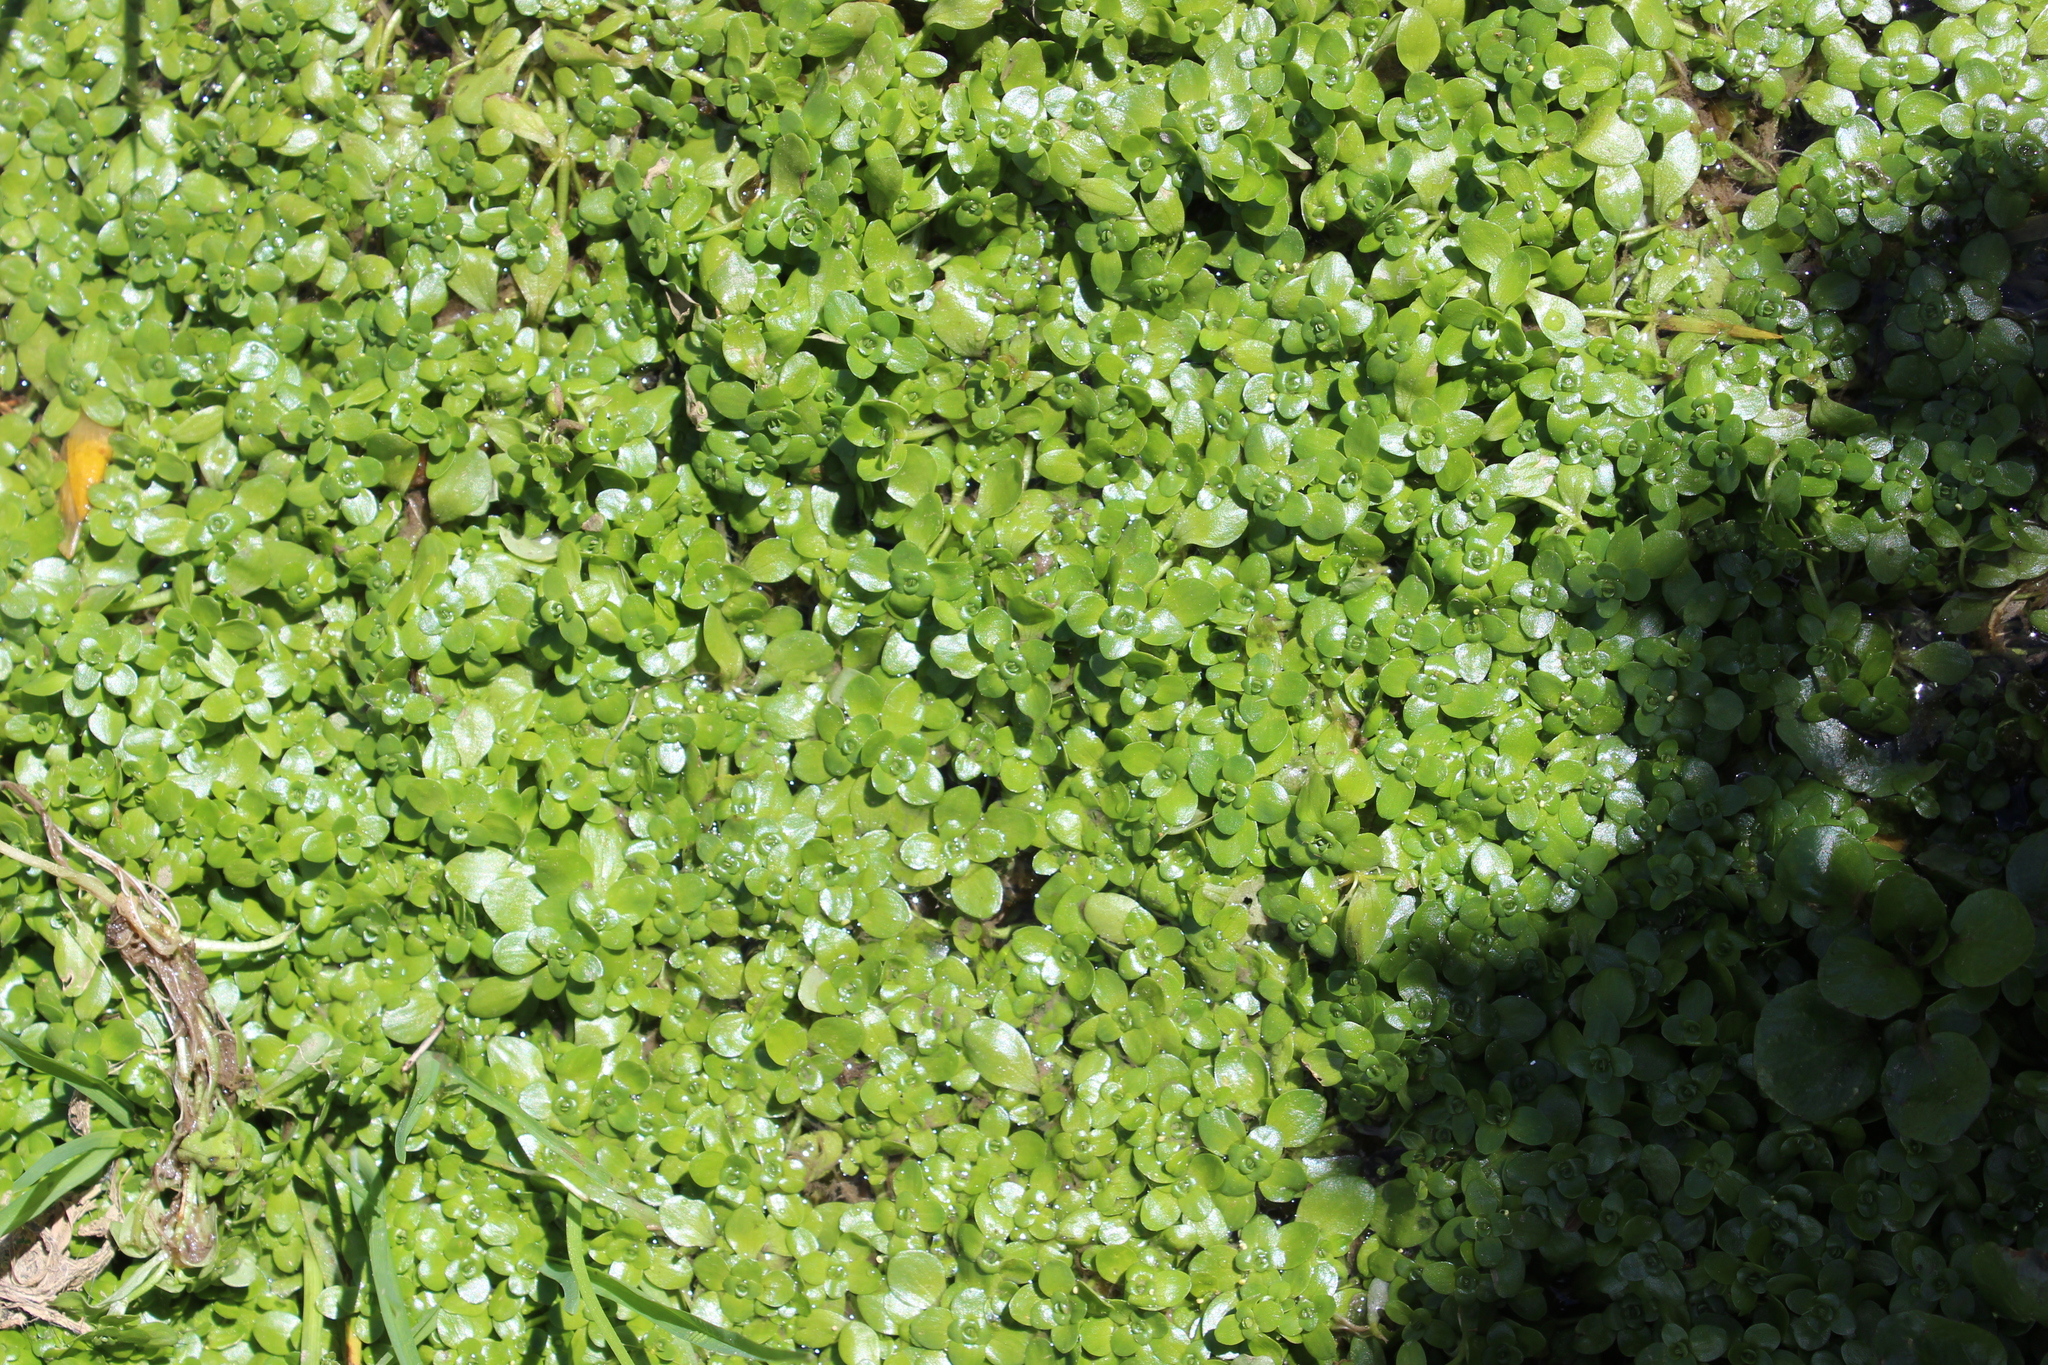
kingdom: Plantae
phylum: Tracheophyta
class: Magnoliopsida
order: Lamiales
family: Plantaginaceae
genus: Callitriche
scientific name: Callitriche stagnalis
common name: Common water-starwort
